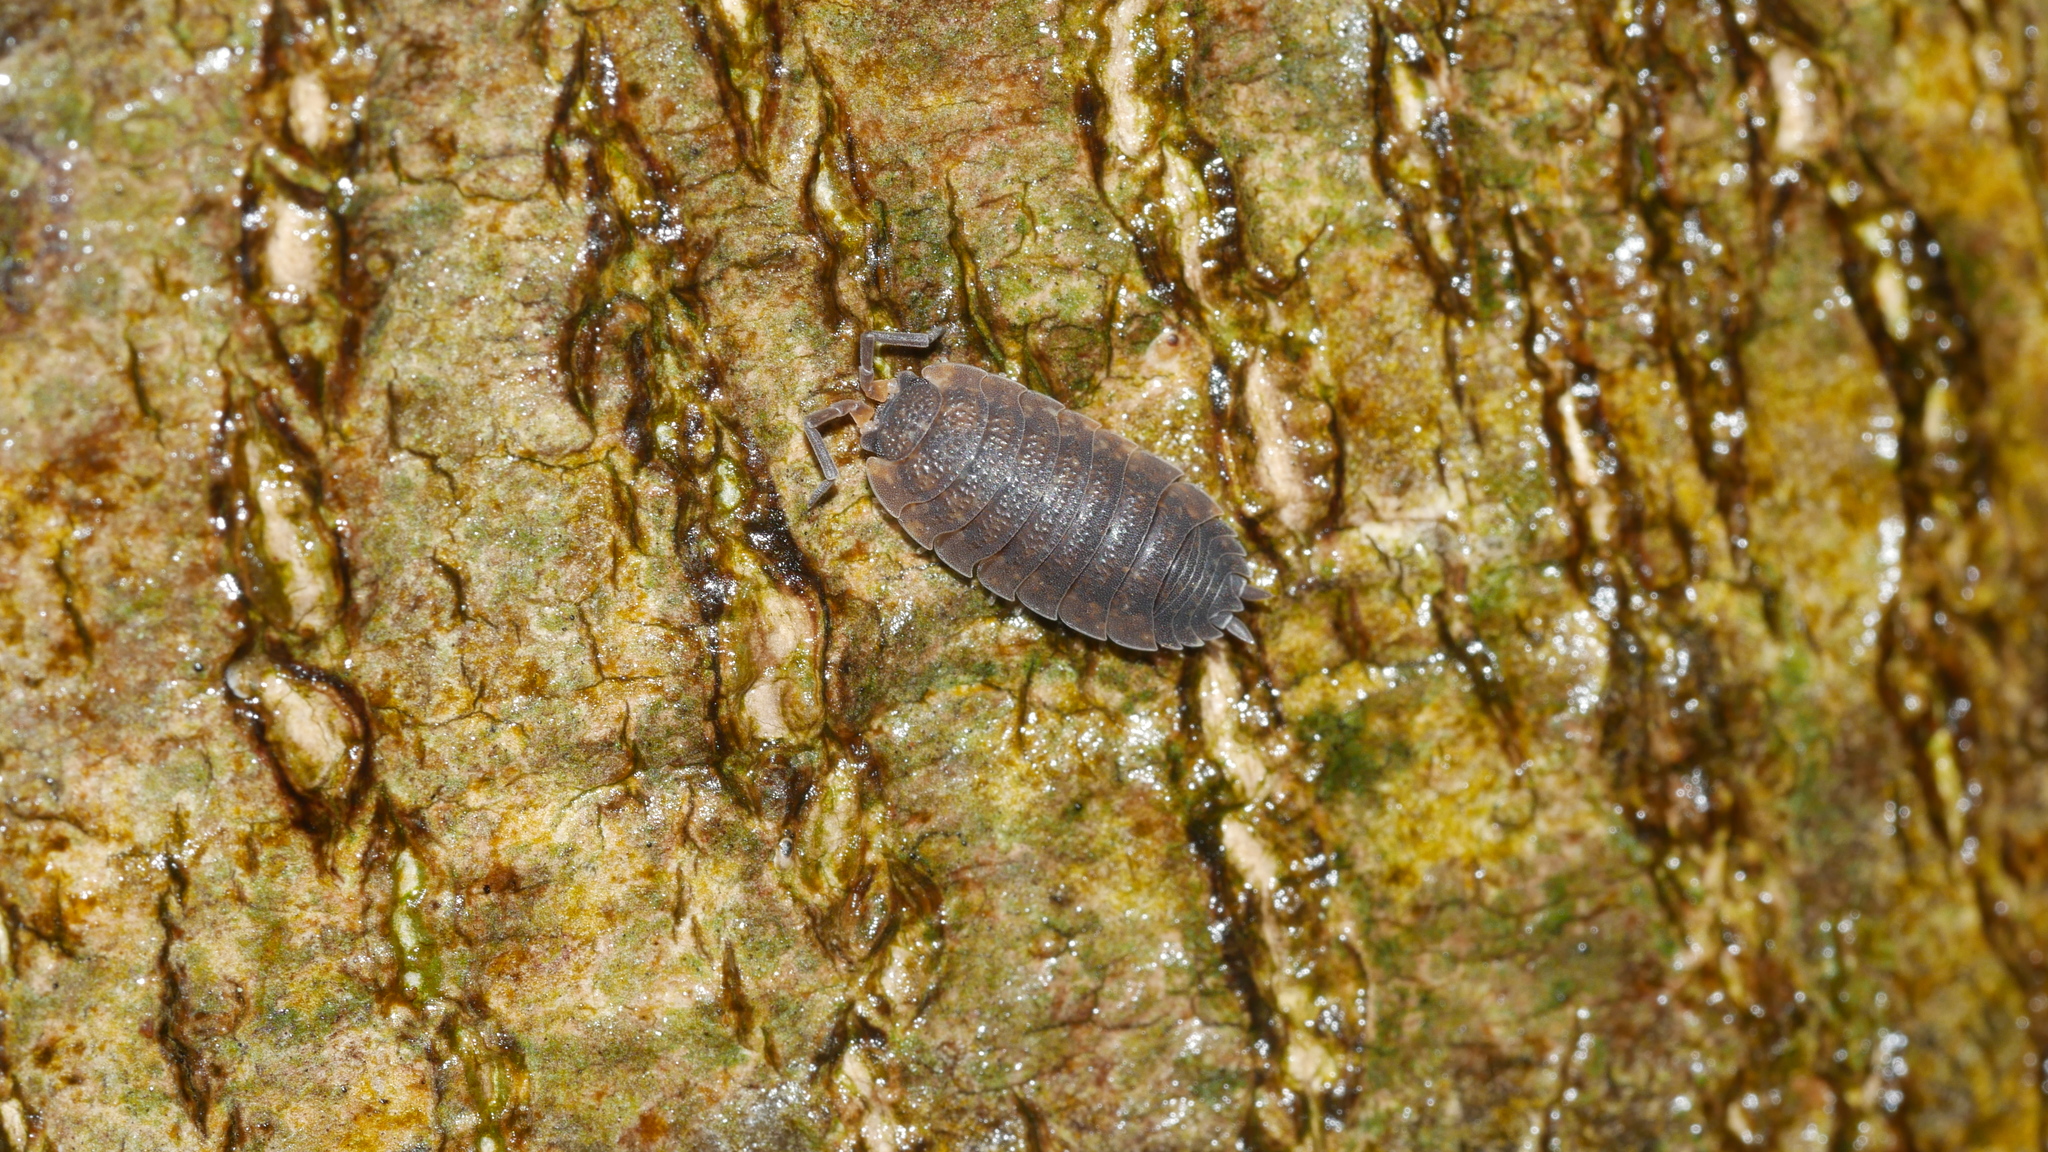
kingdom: Animalia
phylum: Arthropoda
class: Malacostraca
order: Isopoda
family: Porcellionidae
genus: Porcellio
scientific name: Porcellio scaber
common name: Common rough woodlouse
